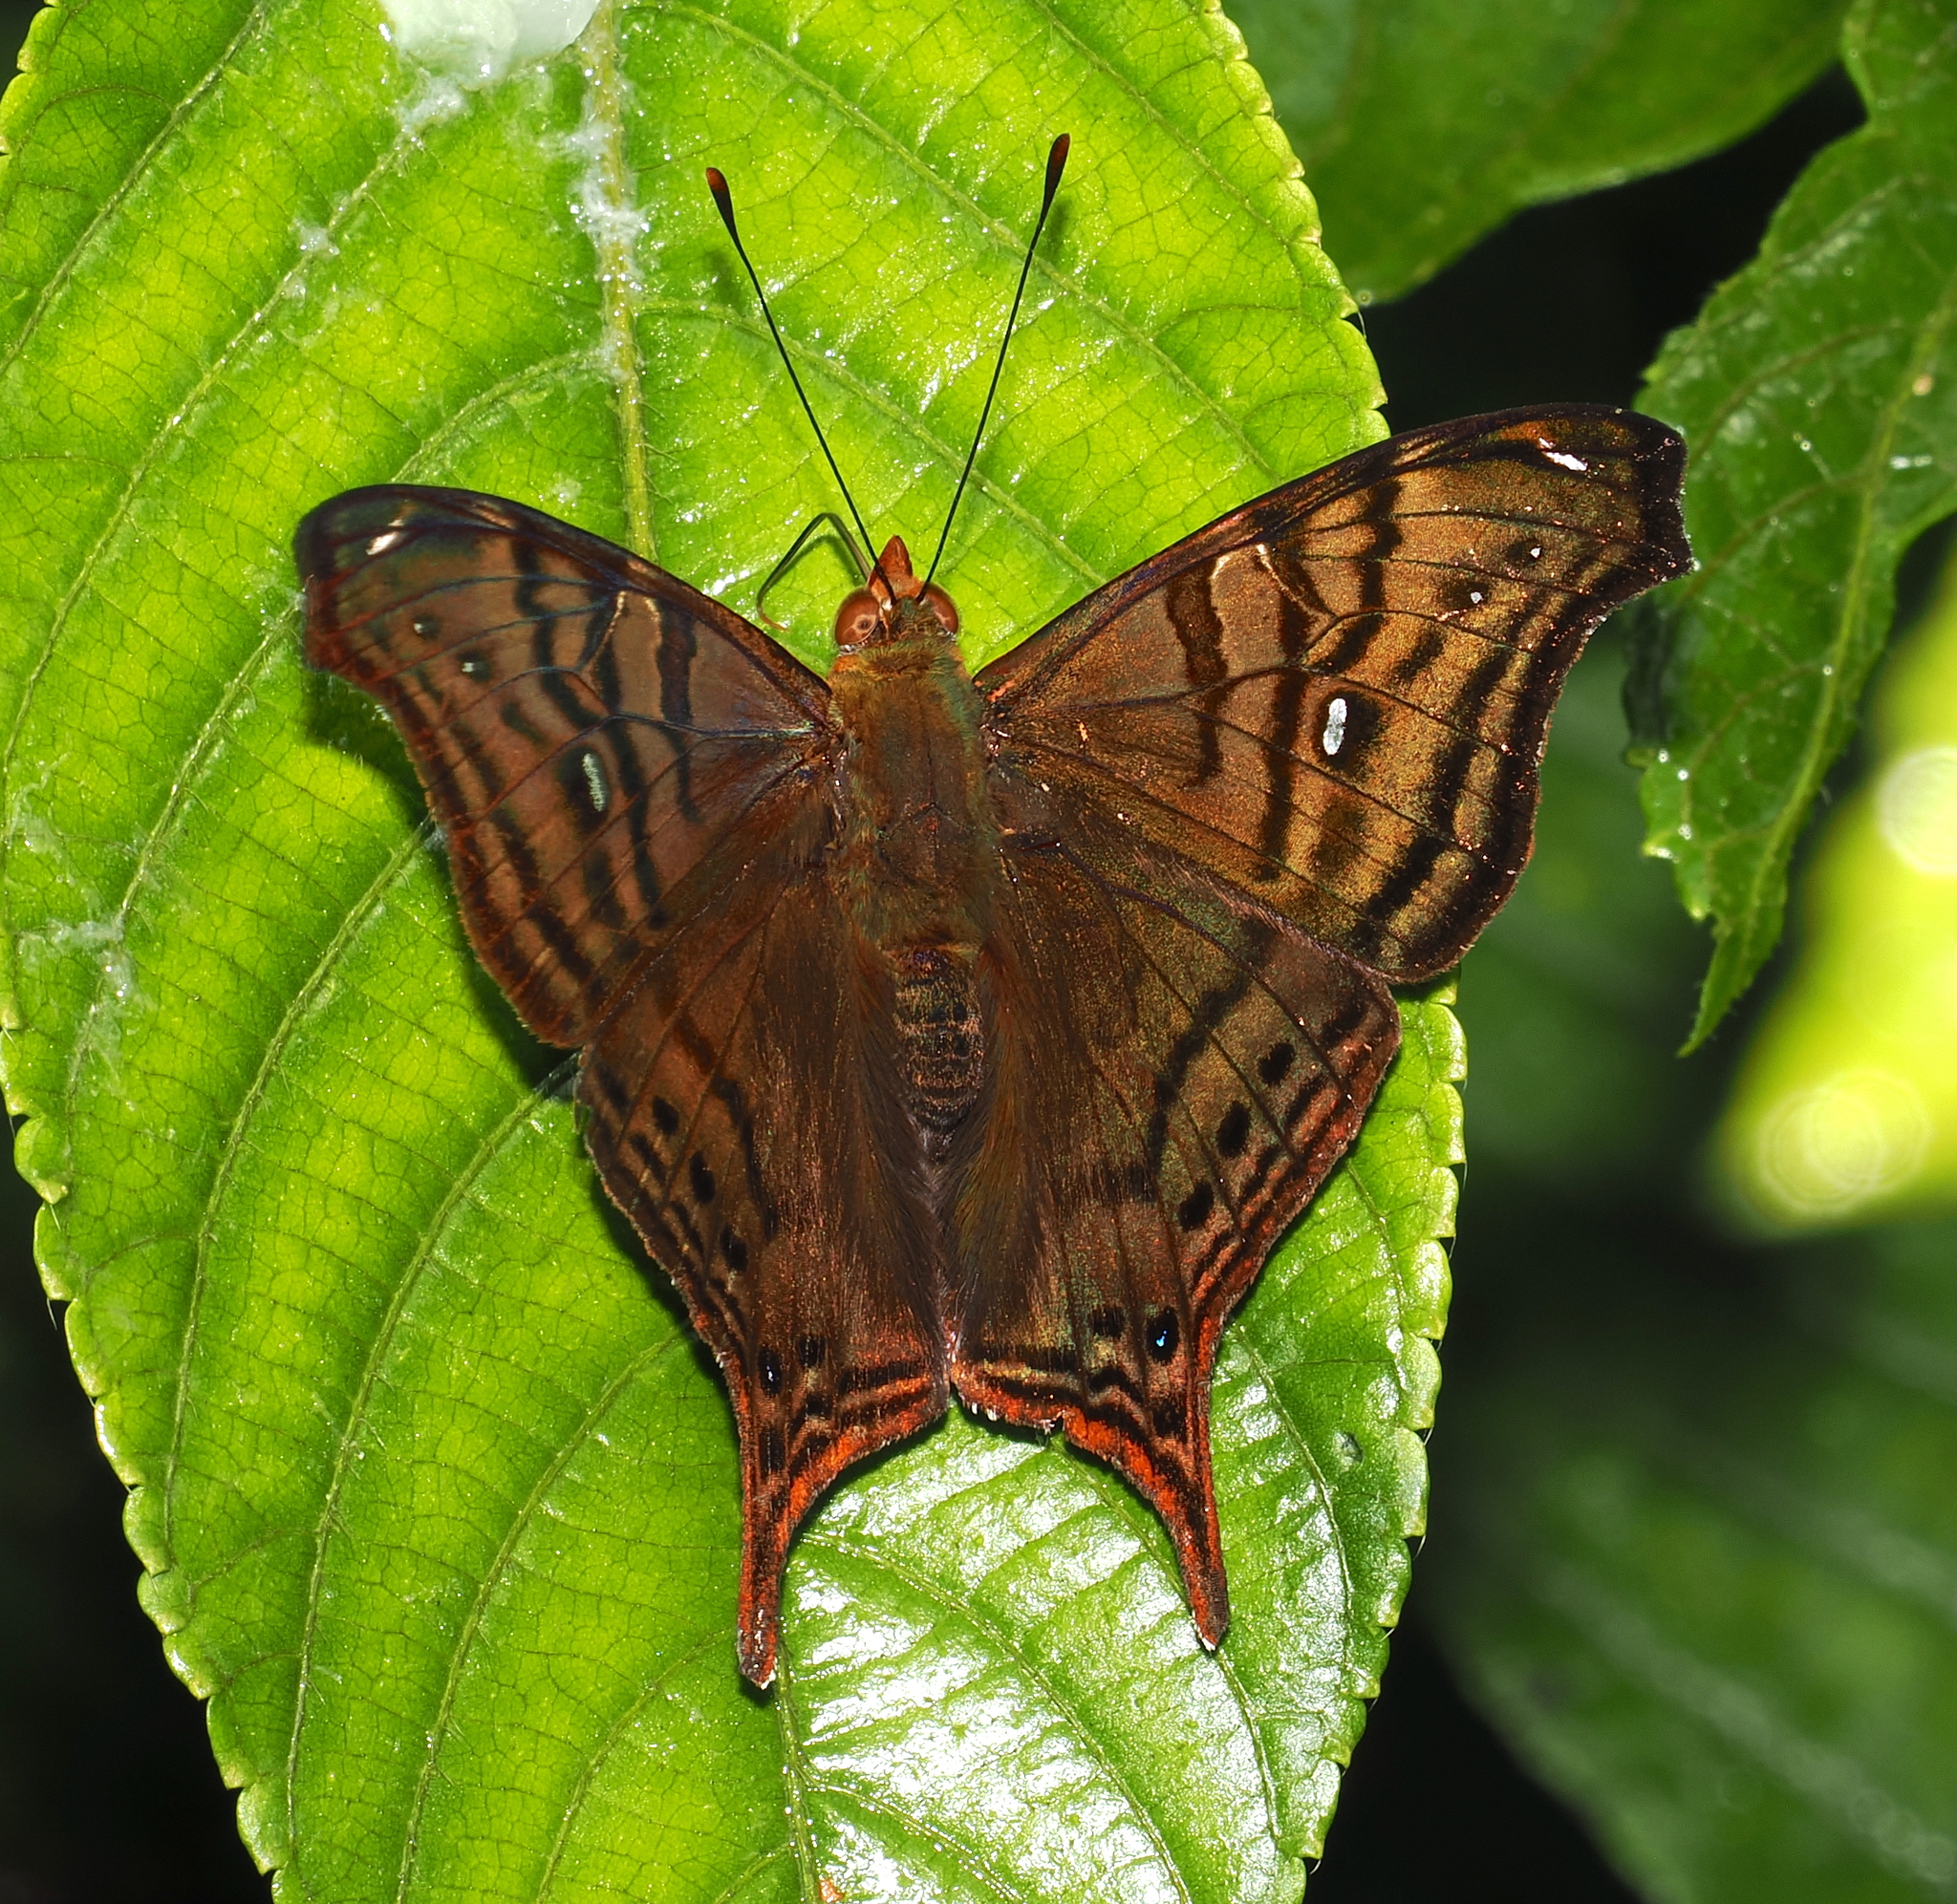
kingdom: Animalia
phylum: Arthropoda
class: Insecta
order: Lepidoptera
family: Nymphalidae
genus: Hypanartia
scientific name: Hypanartia dione
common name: Banded mapwing
